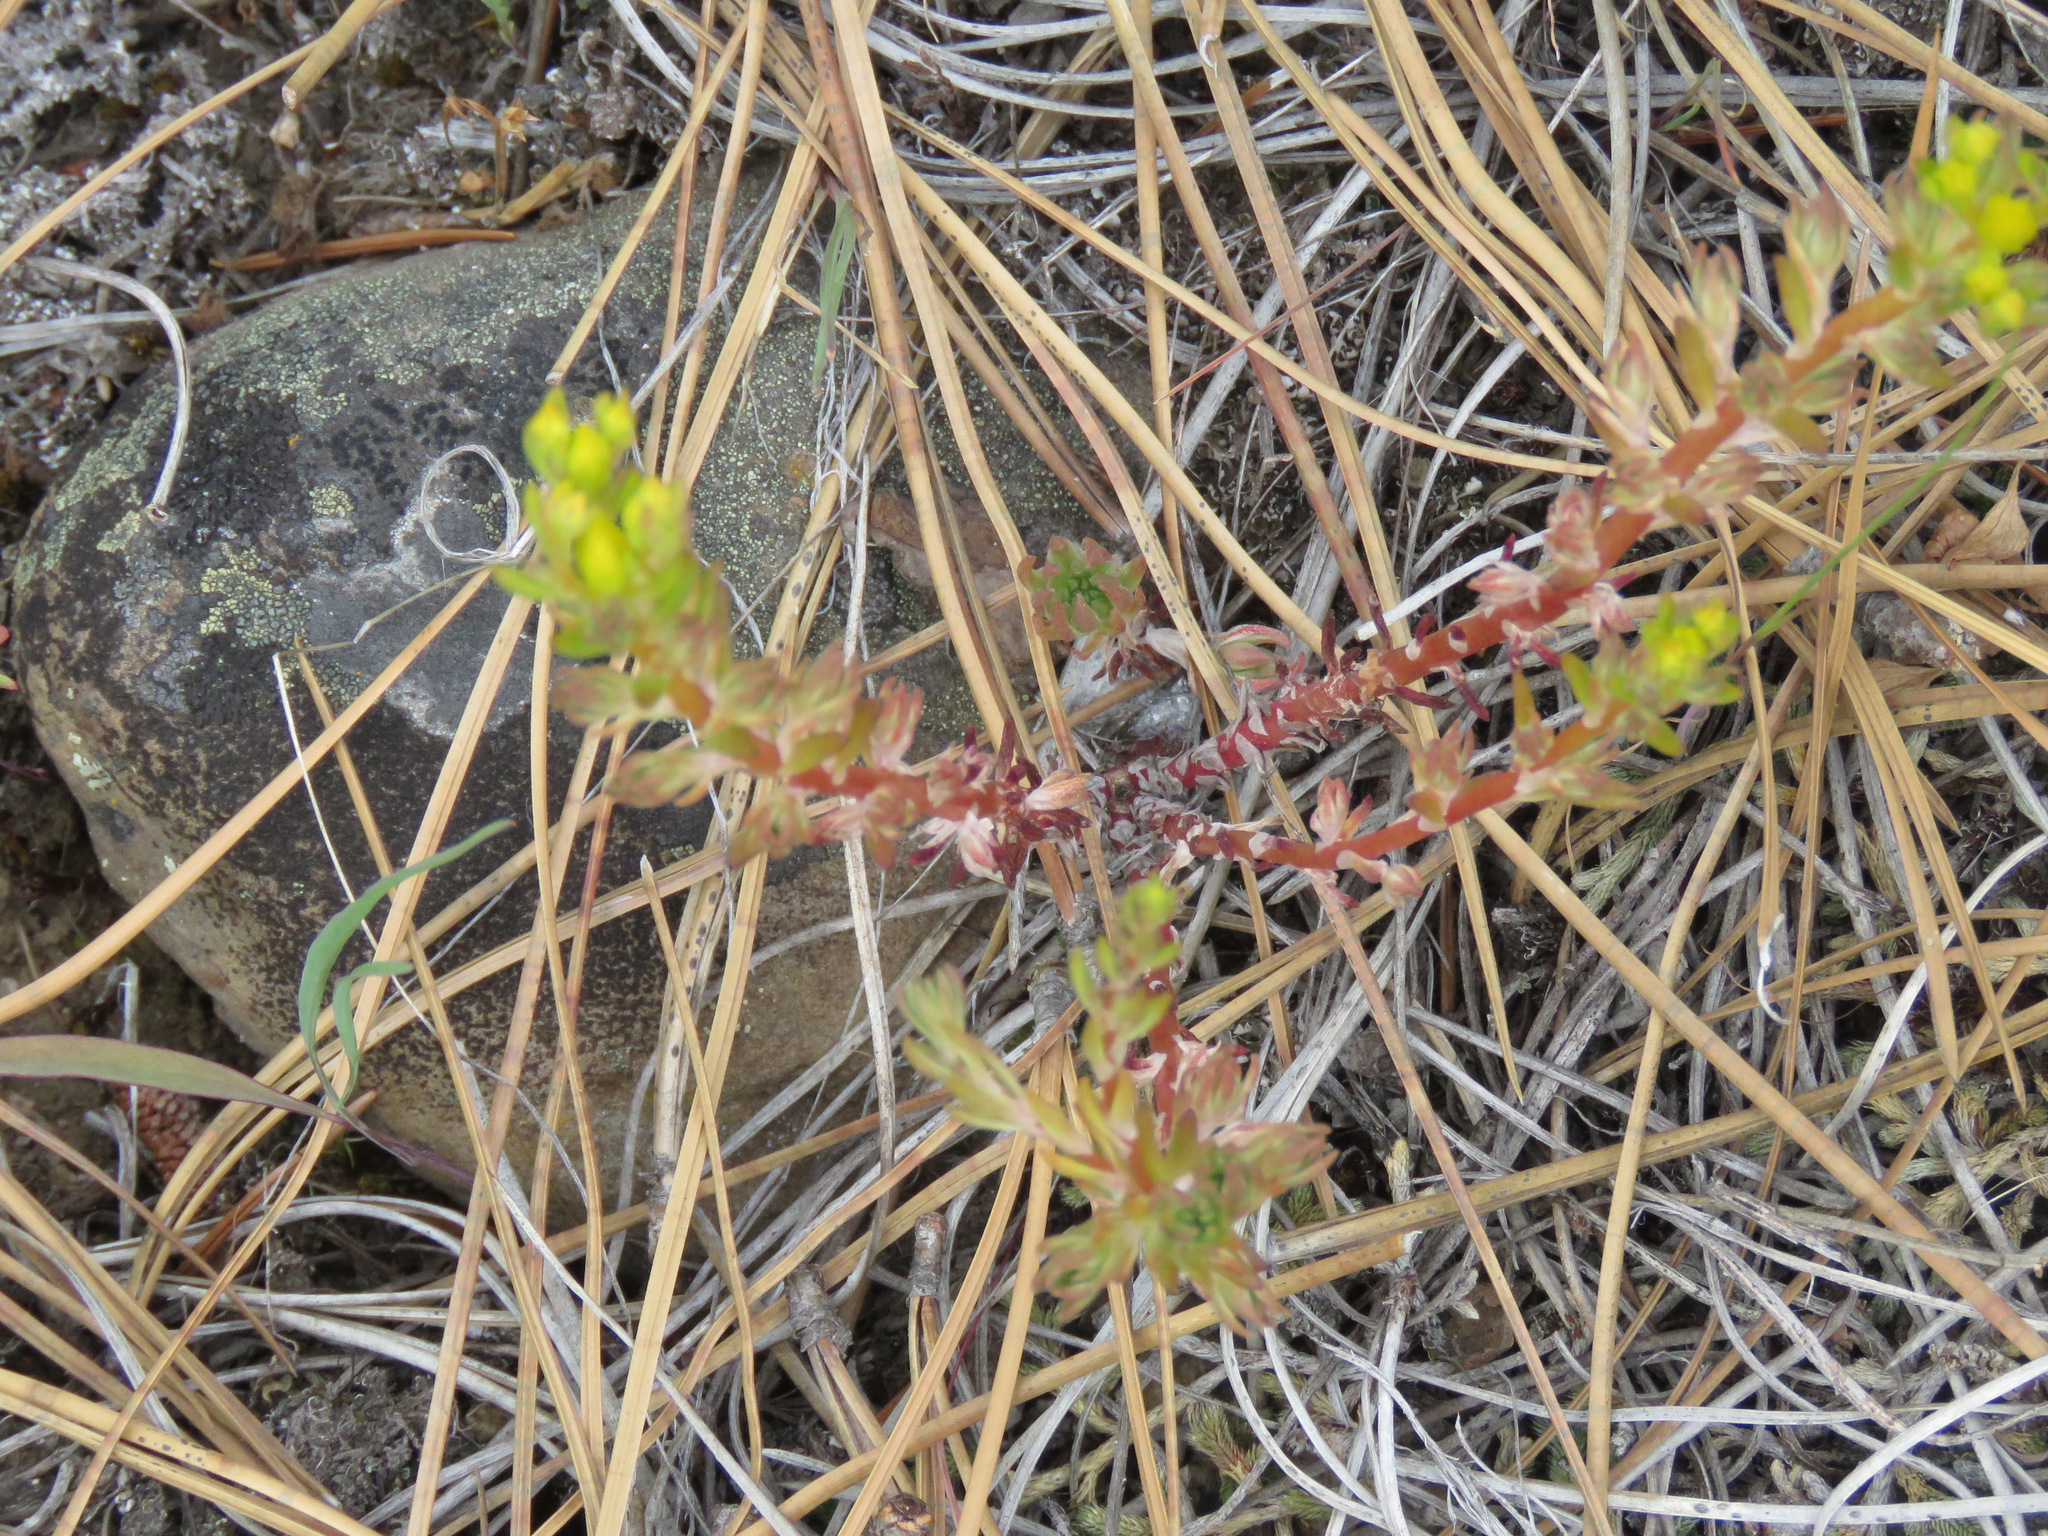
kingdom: Plantae
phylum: Tracheophyta
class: Magnoliopsida
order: Saxifragales
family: Crassulaceae
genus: Sedum
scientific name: Sedum stenopetalum
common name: Narrow-petaled stonecrop
